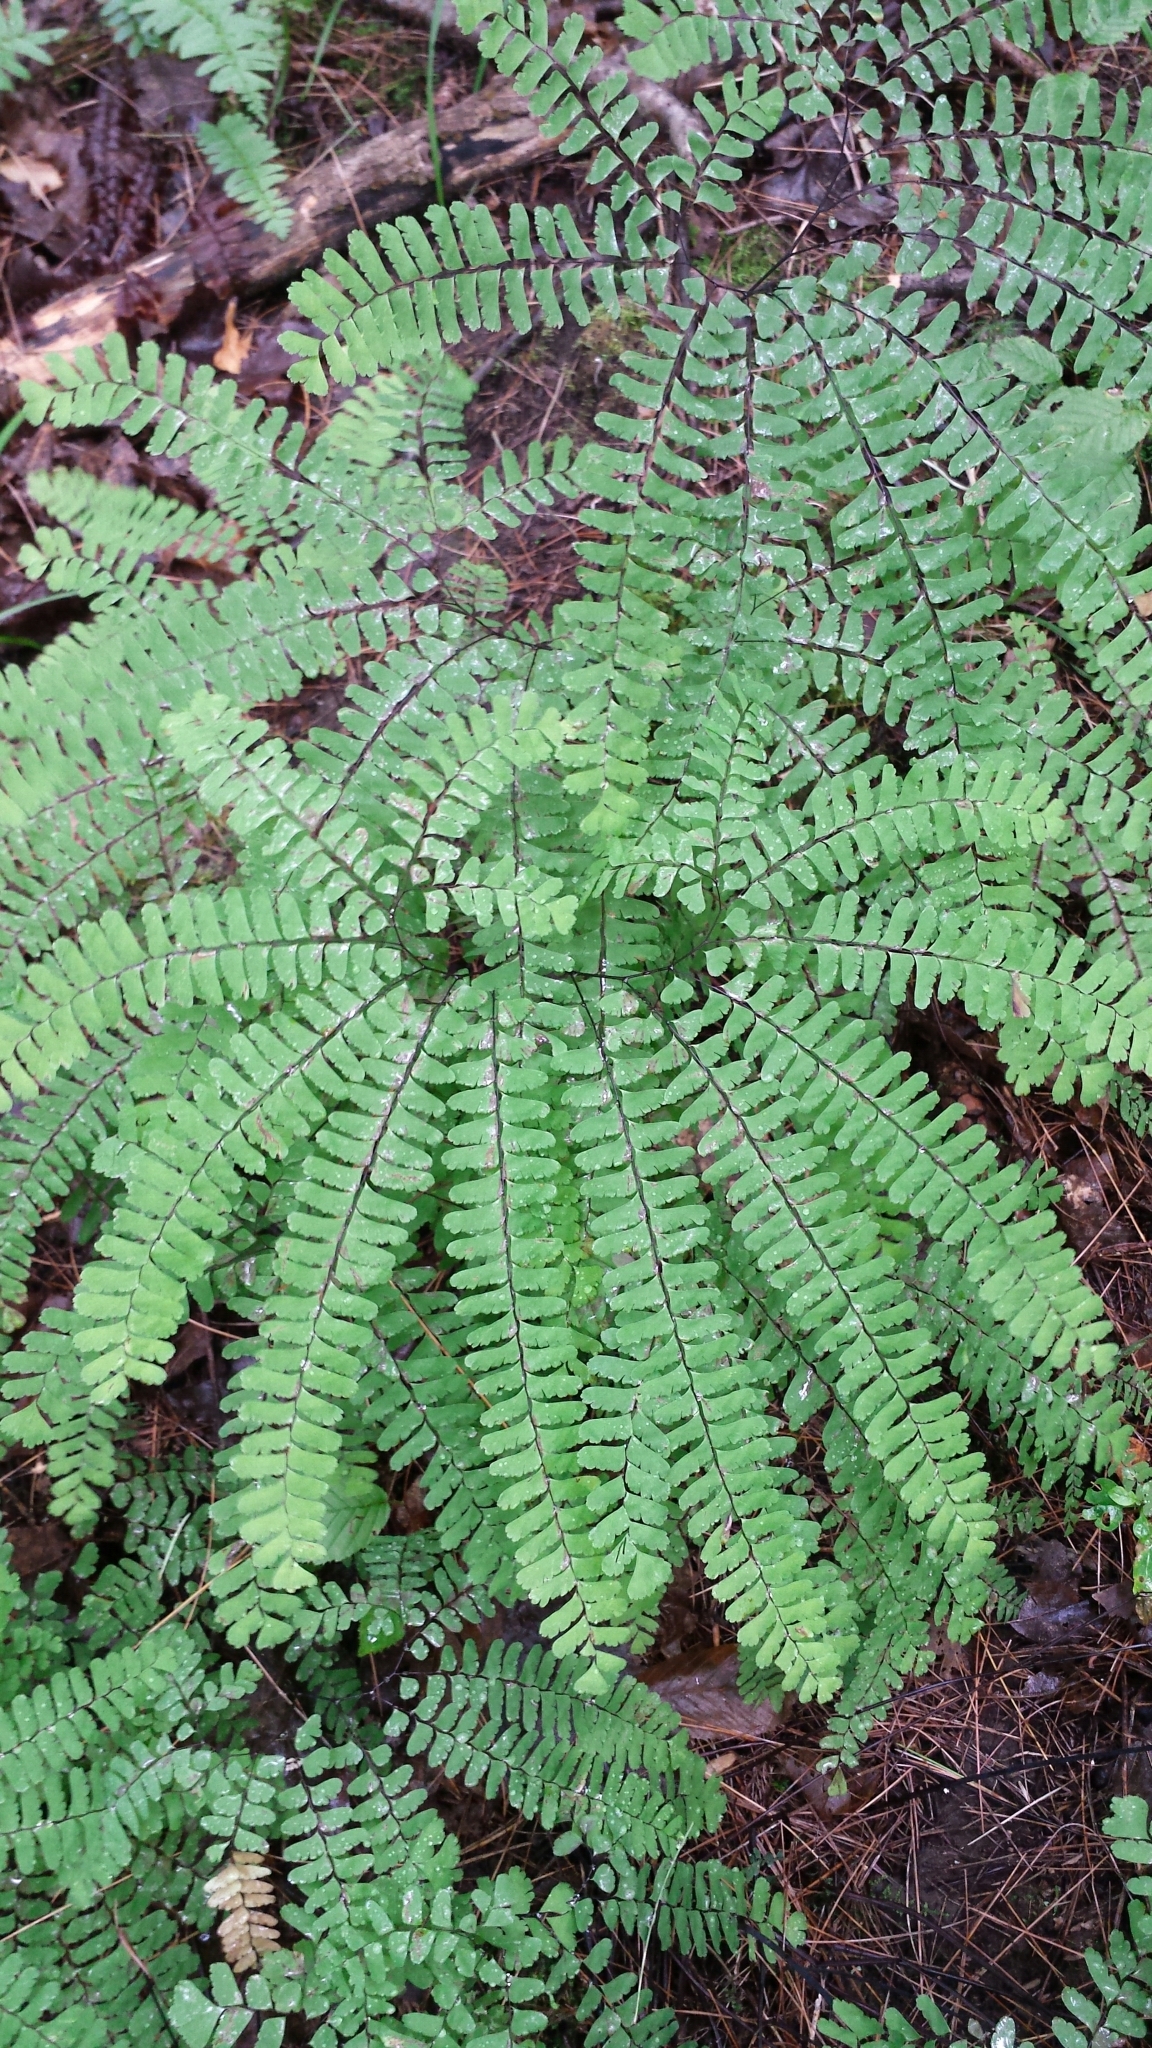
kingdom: Plantae
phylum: Tracheophyta
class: Polypodiopsida
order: Polypodiales
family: Pteridaceae
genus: Adiantum
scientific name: Adiantum pedatum
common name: Five-finger fern
